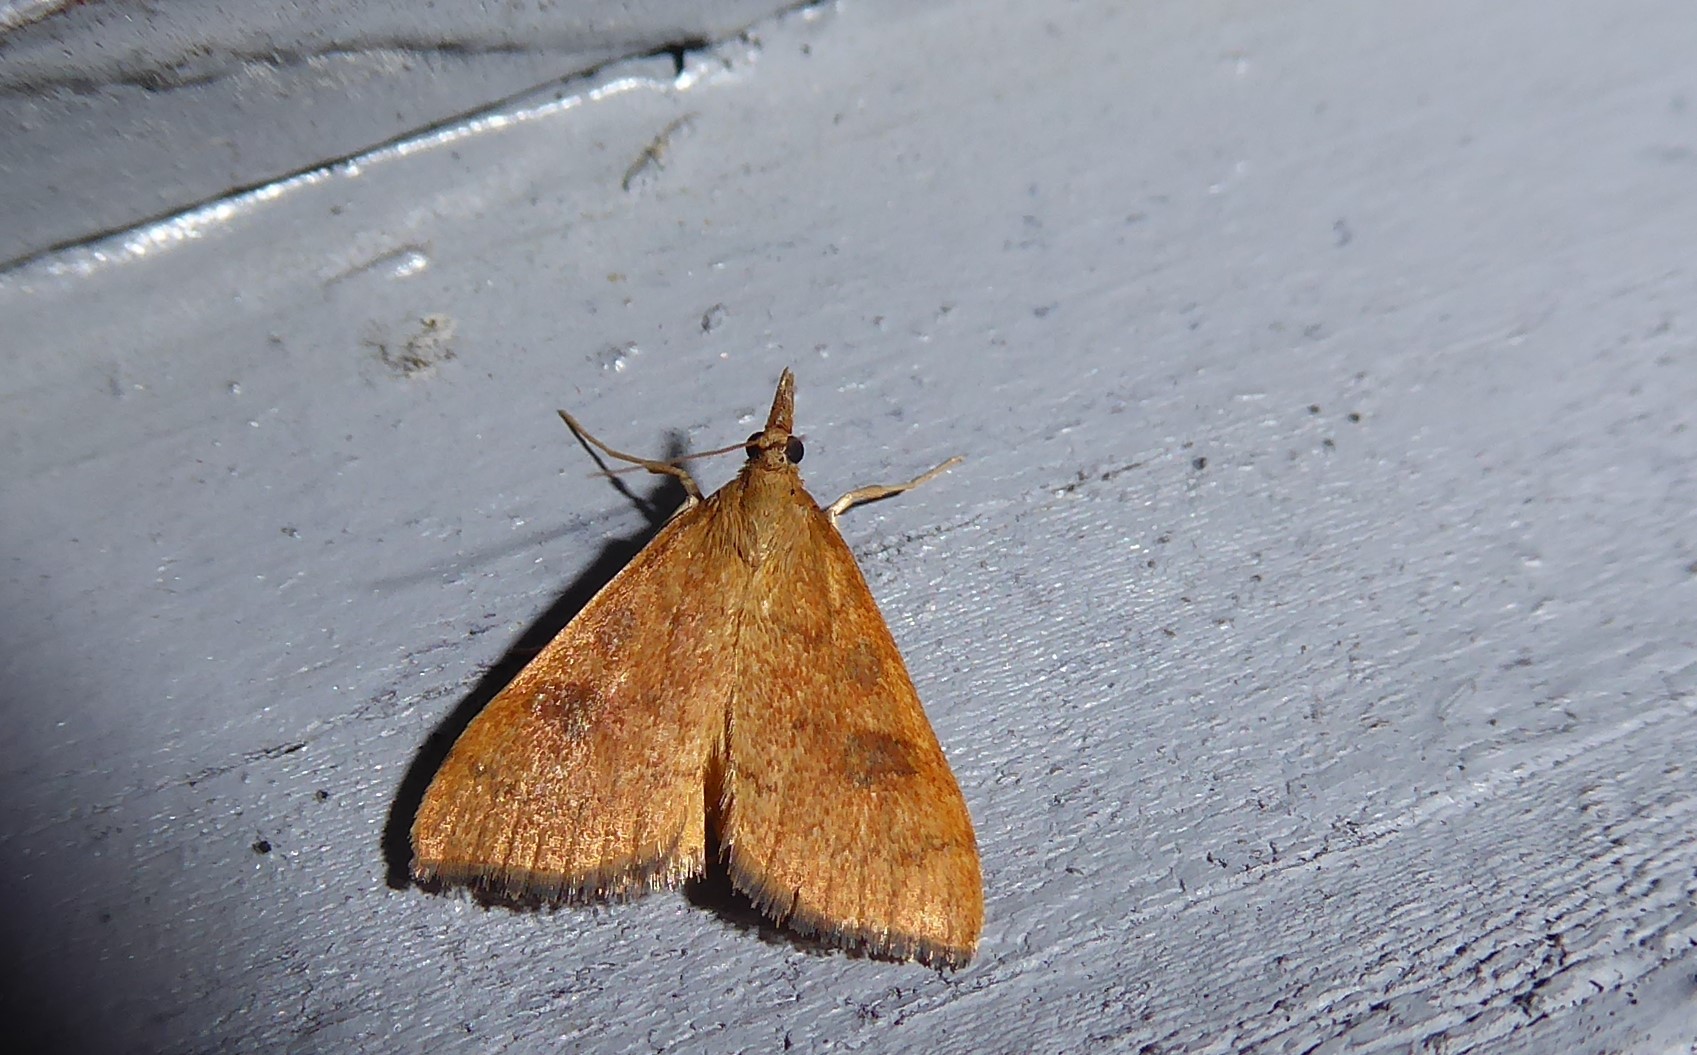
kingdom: Animalia
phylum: Arthropoda
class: Insecta
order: Lepidoptera
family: Crambidae
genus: Udea
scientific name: Udea Mnesictena flavidalis
